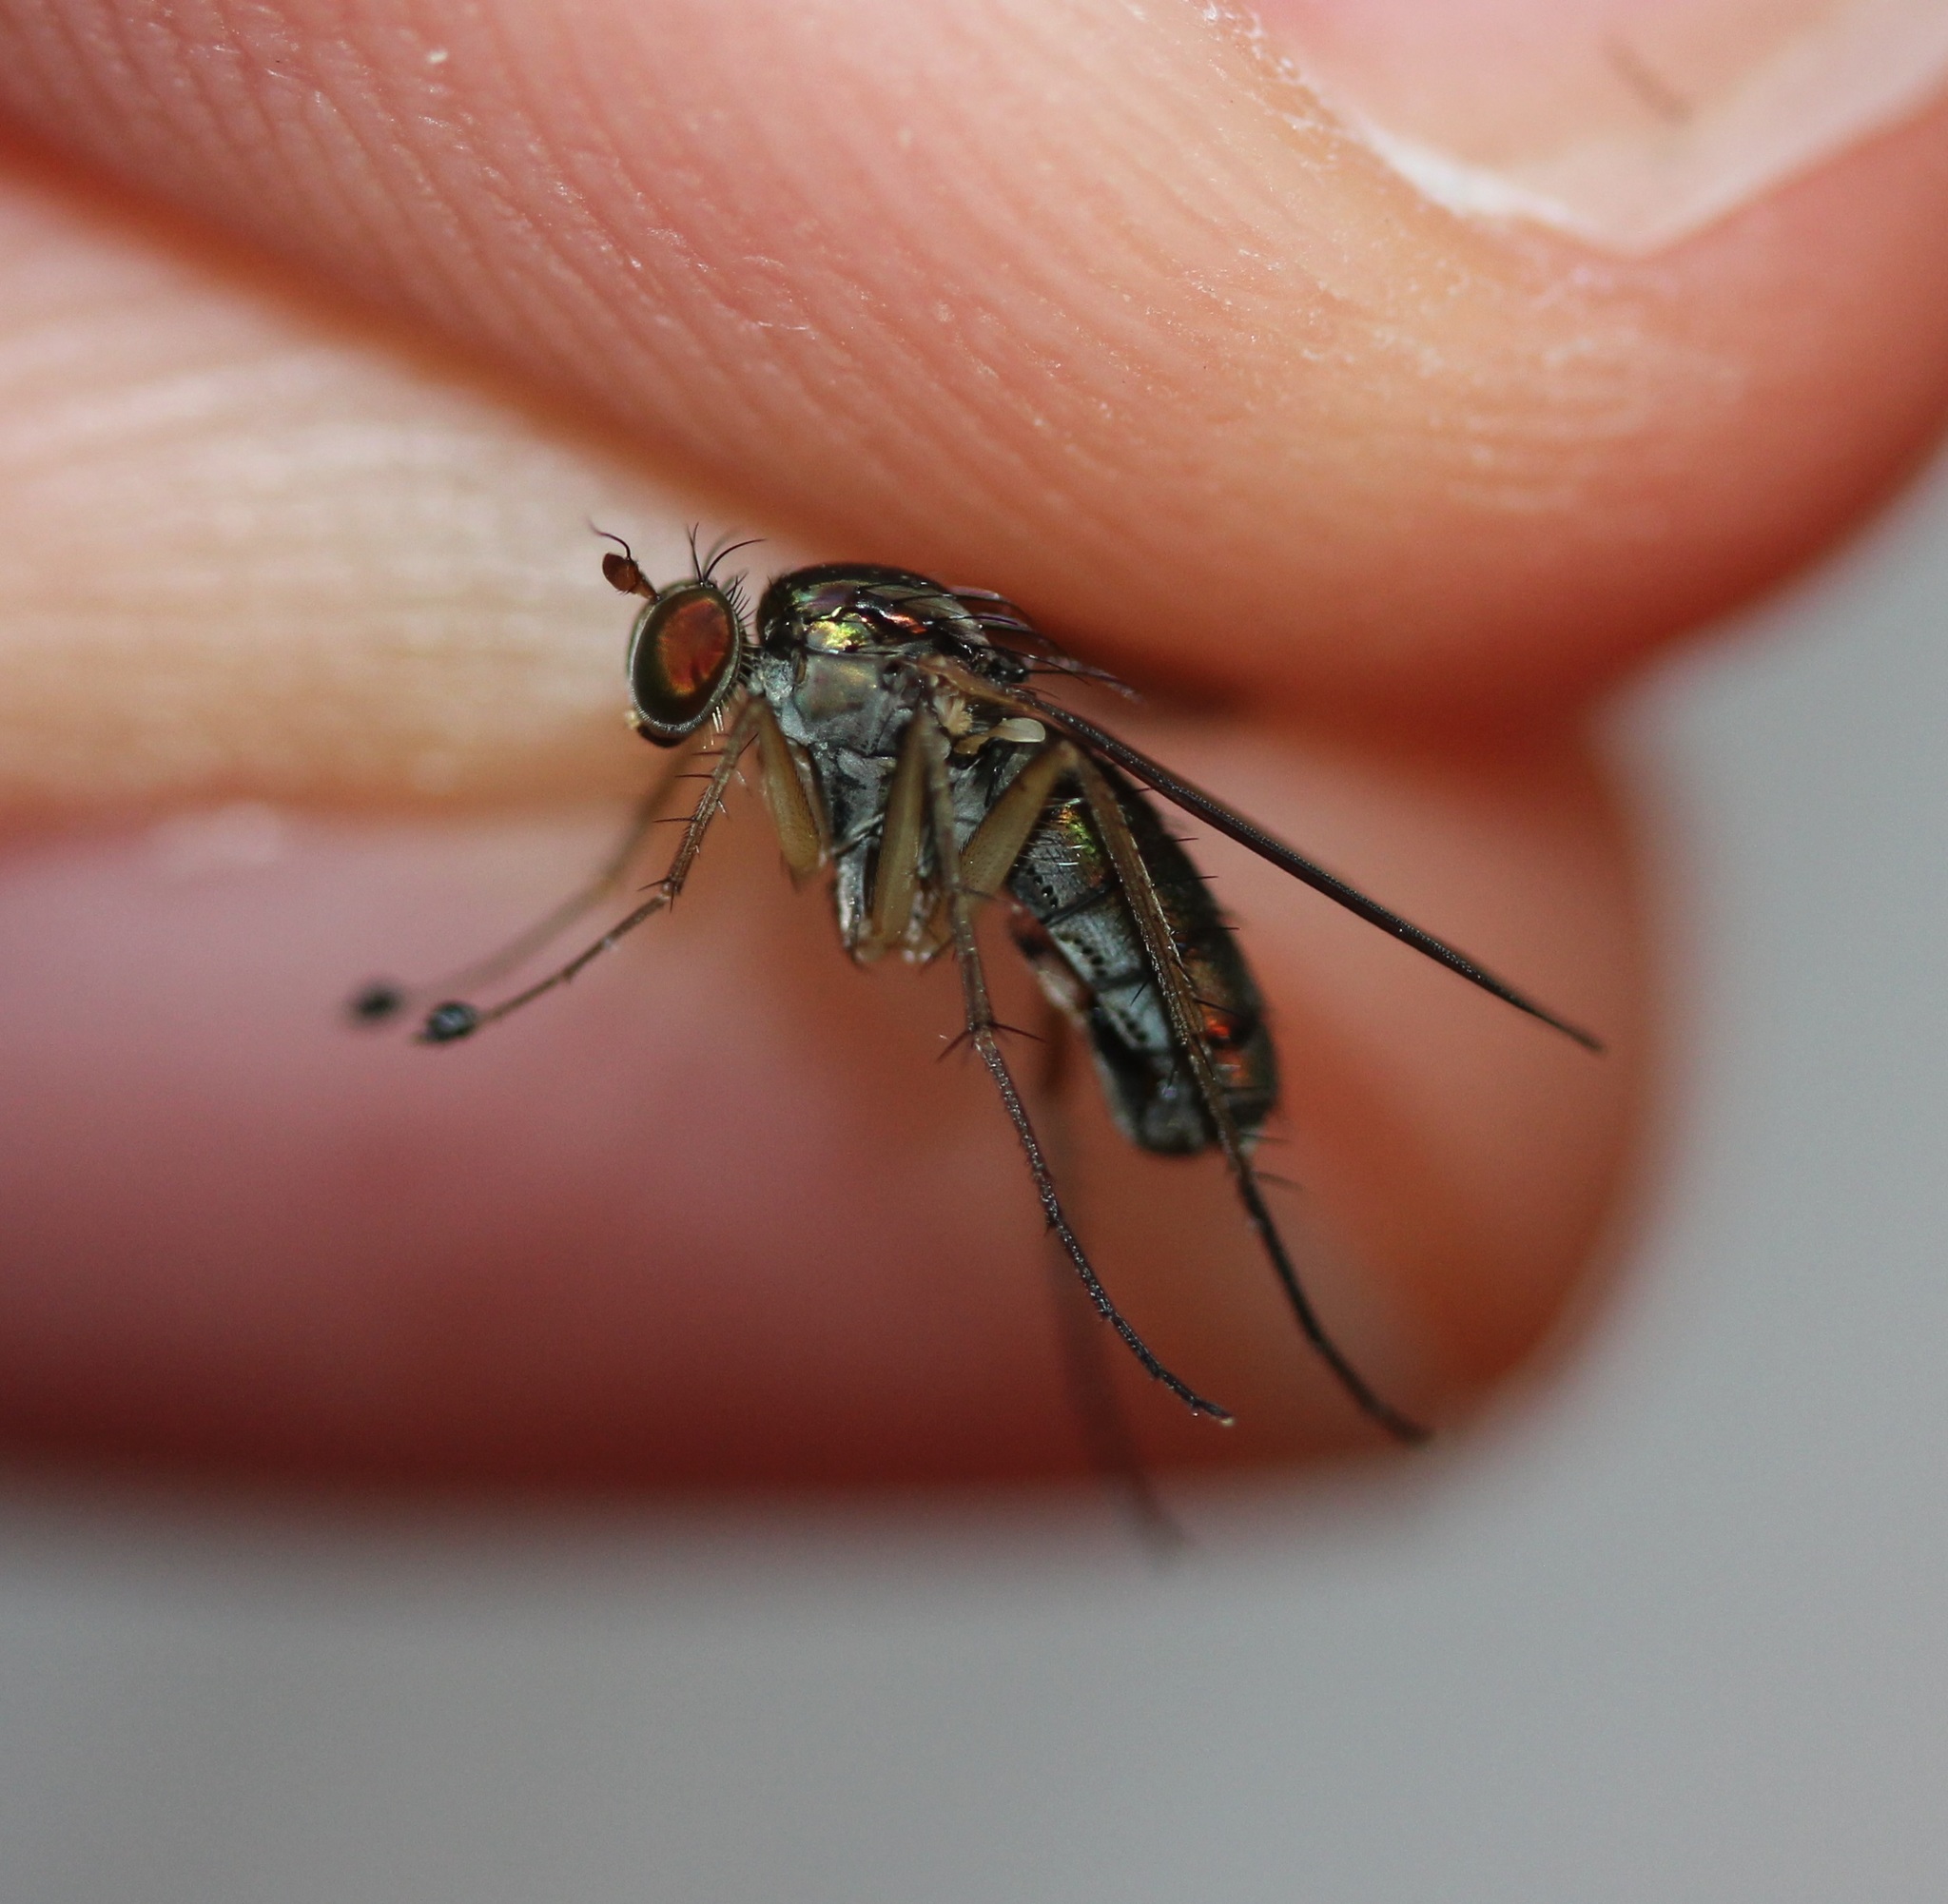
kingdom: Animalia
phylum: Arthropoda
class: Insecta
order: Diptera
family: Dolichopodidae
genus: Dolichopus
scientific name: Dolichopus cuprinus
